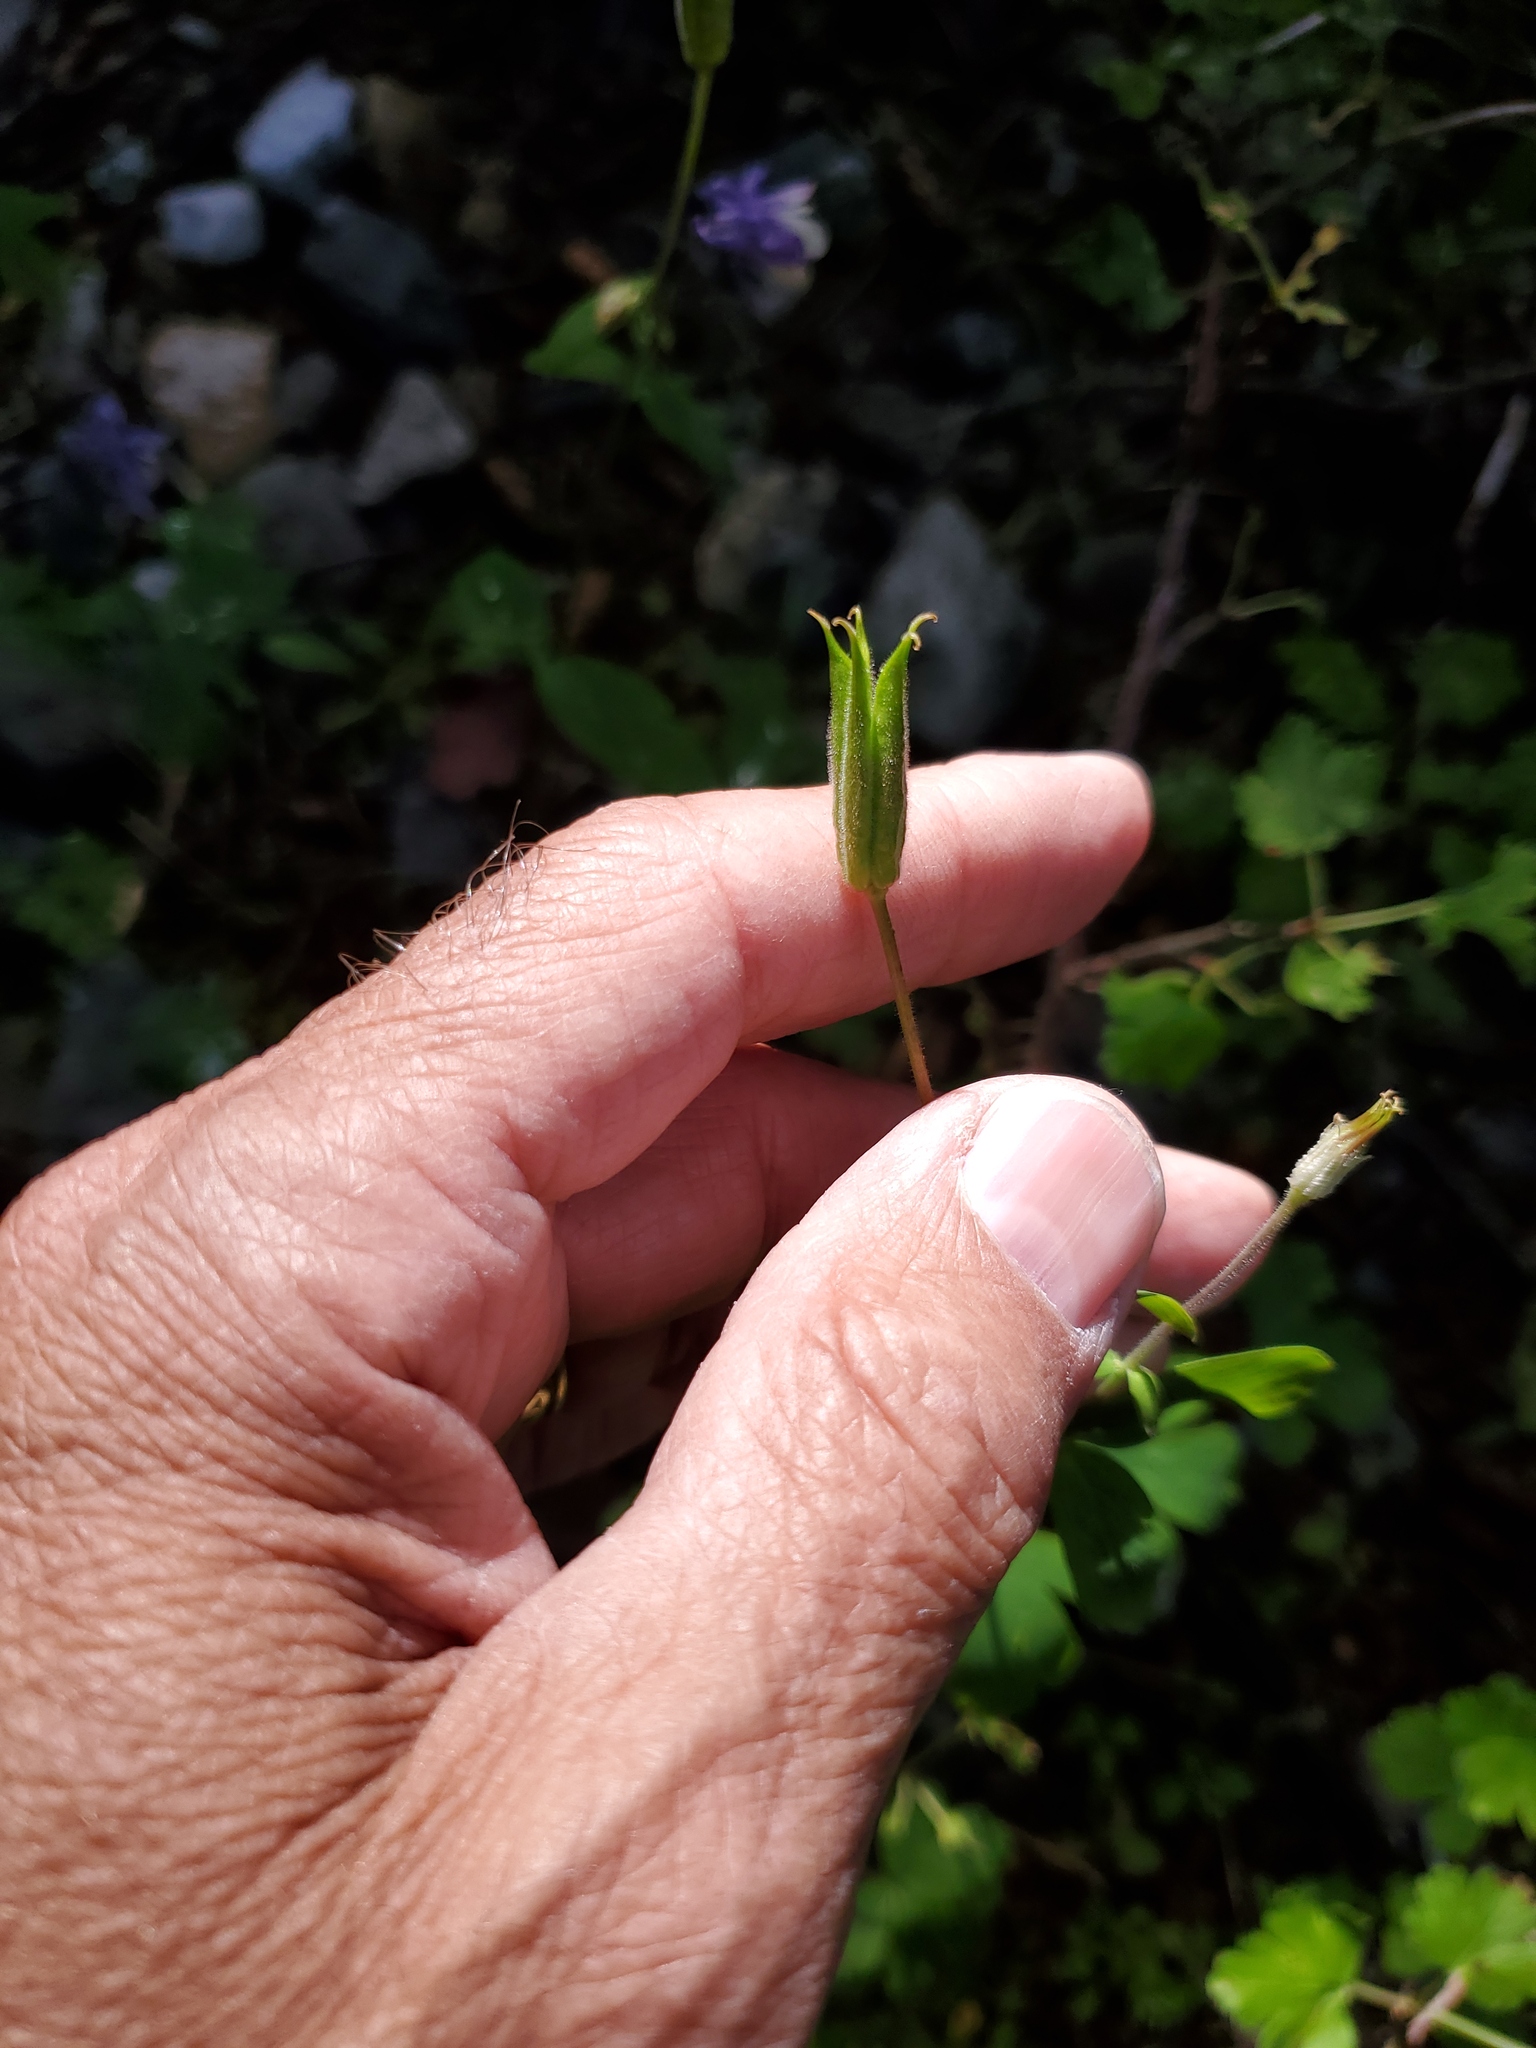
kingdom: Plantae
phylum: Tracheophyta
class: Magnoliopsida
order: Ranunculales
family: Ranunculaceae
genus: Aquilegia
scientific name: Aquilegia brevistyla
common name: Yukon columbine
